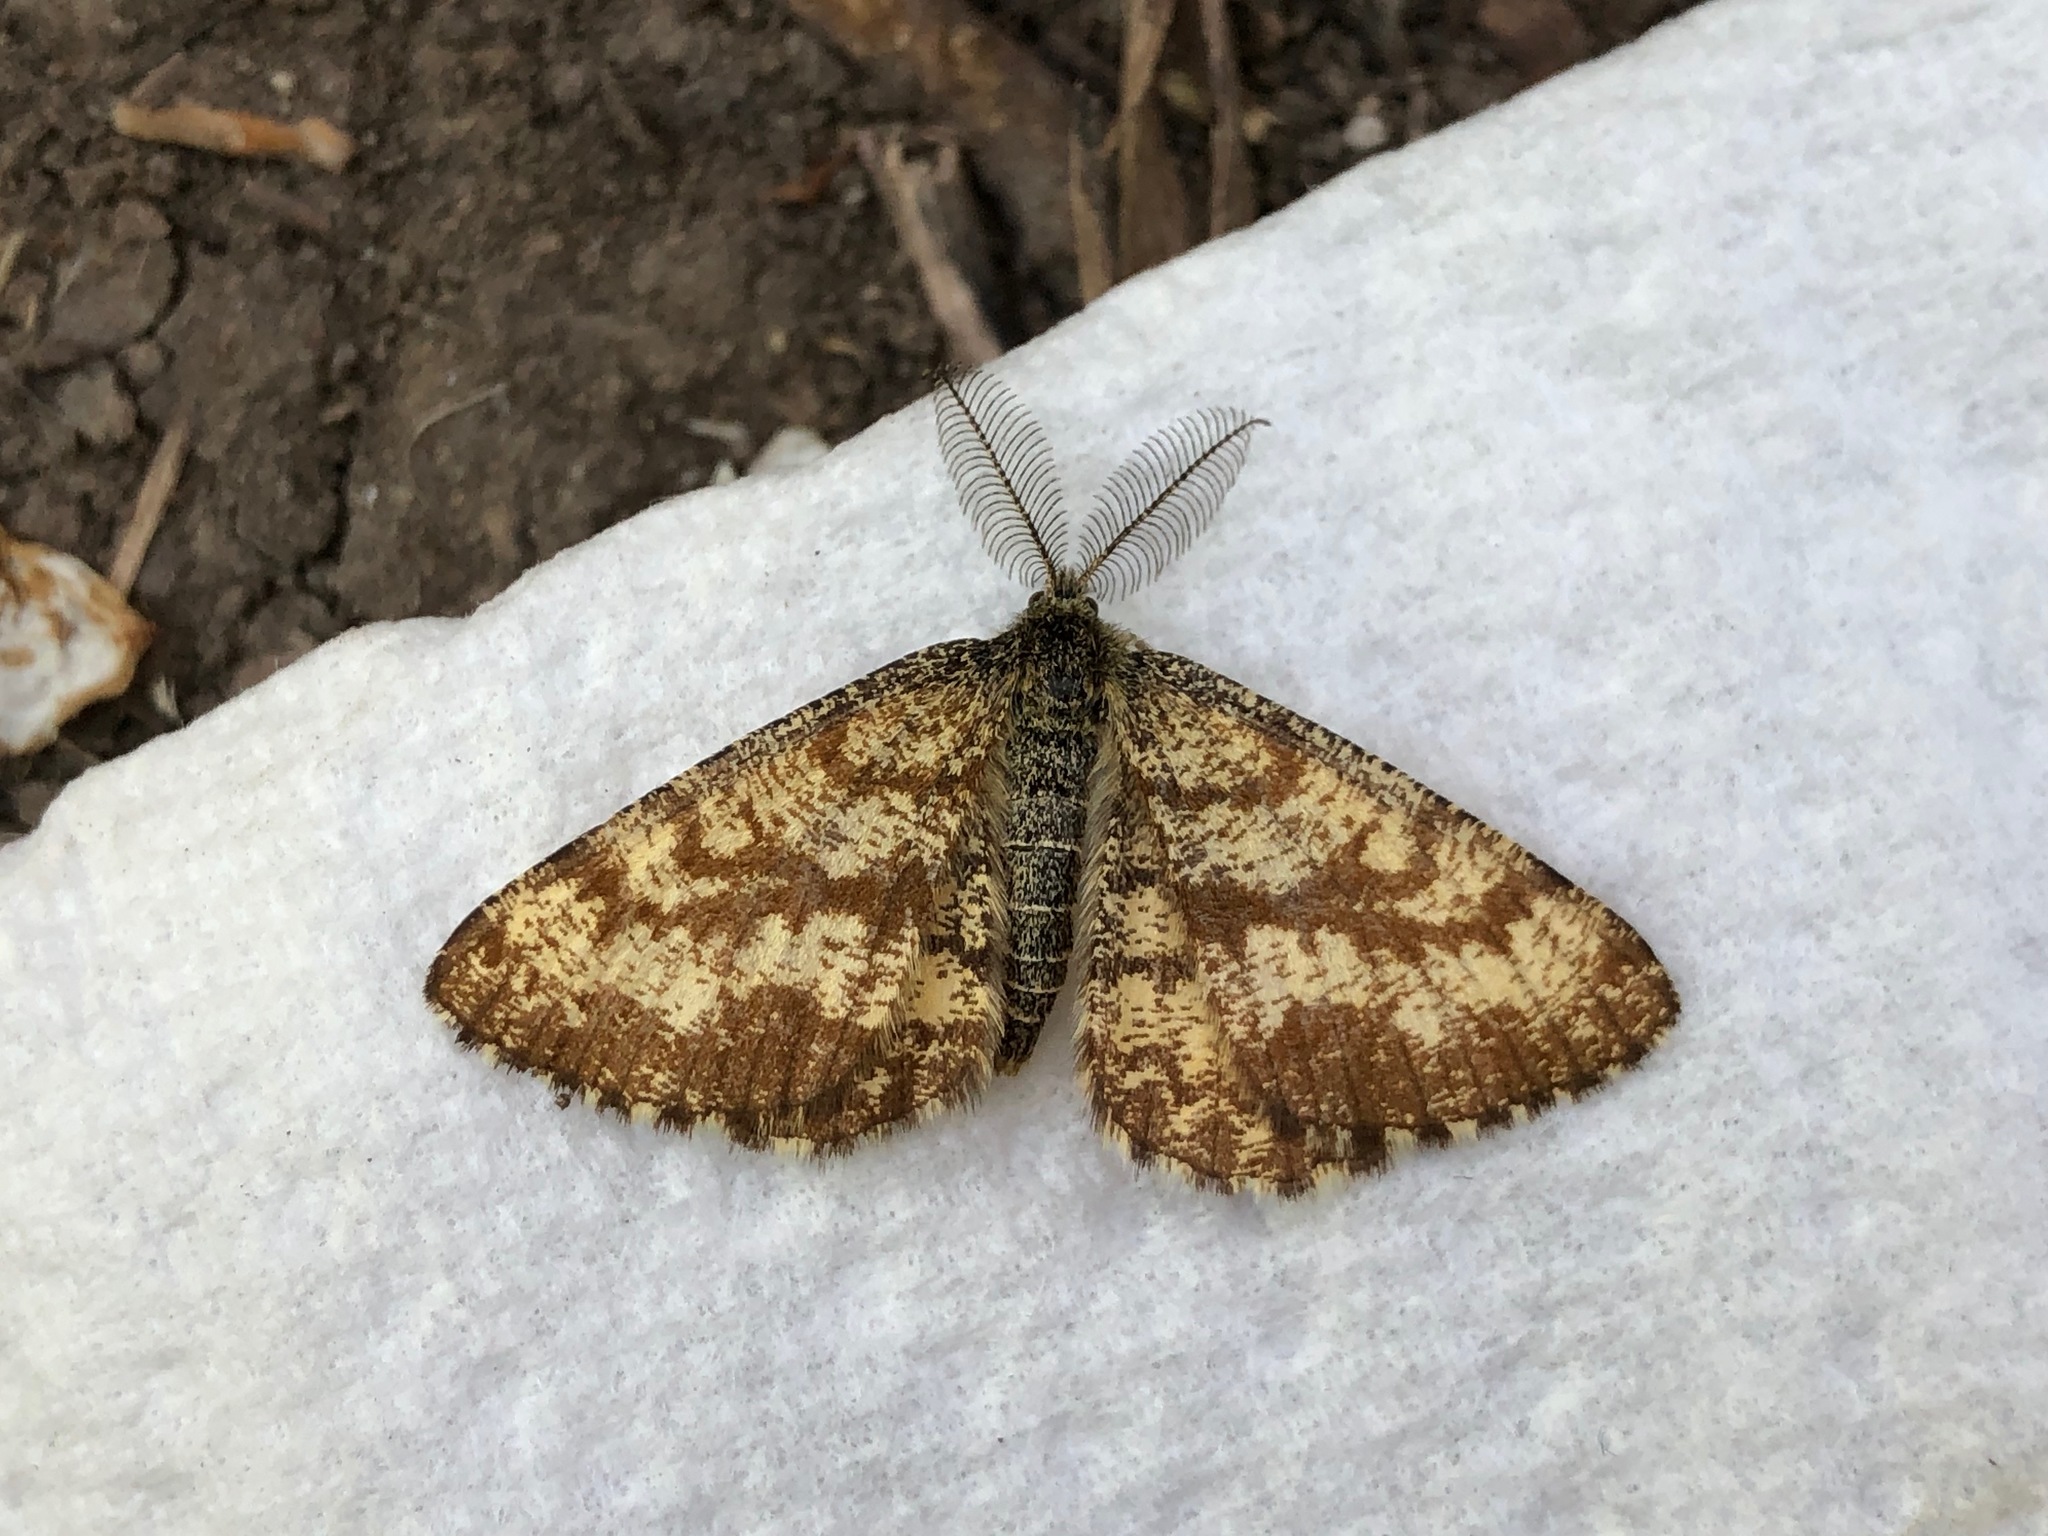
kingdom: Animalia
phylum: Arthropoda
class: Insecta
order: Lepidoptera
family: Geometridae
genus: Ematurga
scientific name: Ematurga atomaria
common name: Common heath
